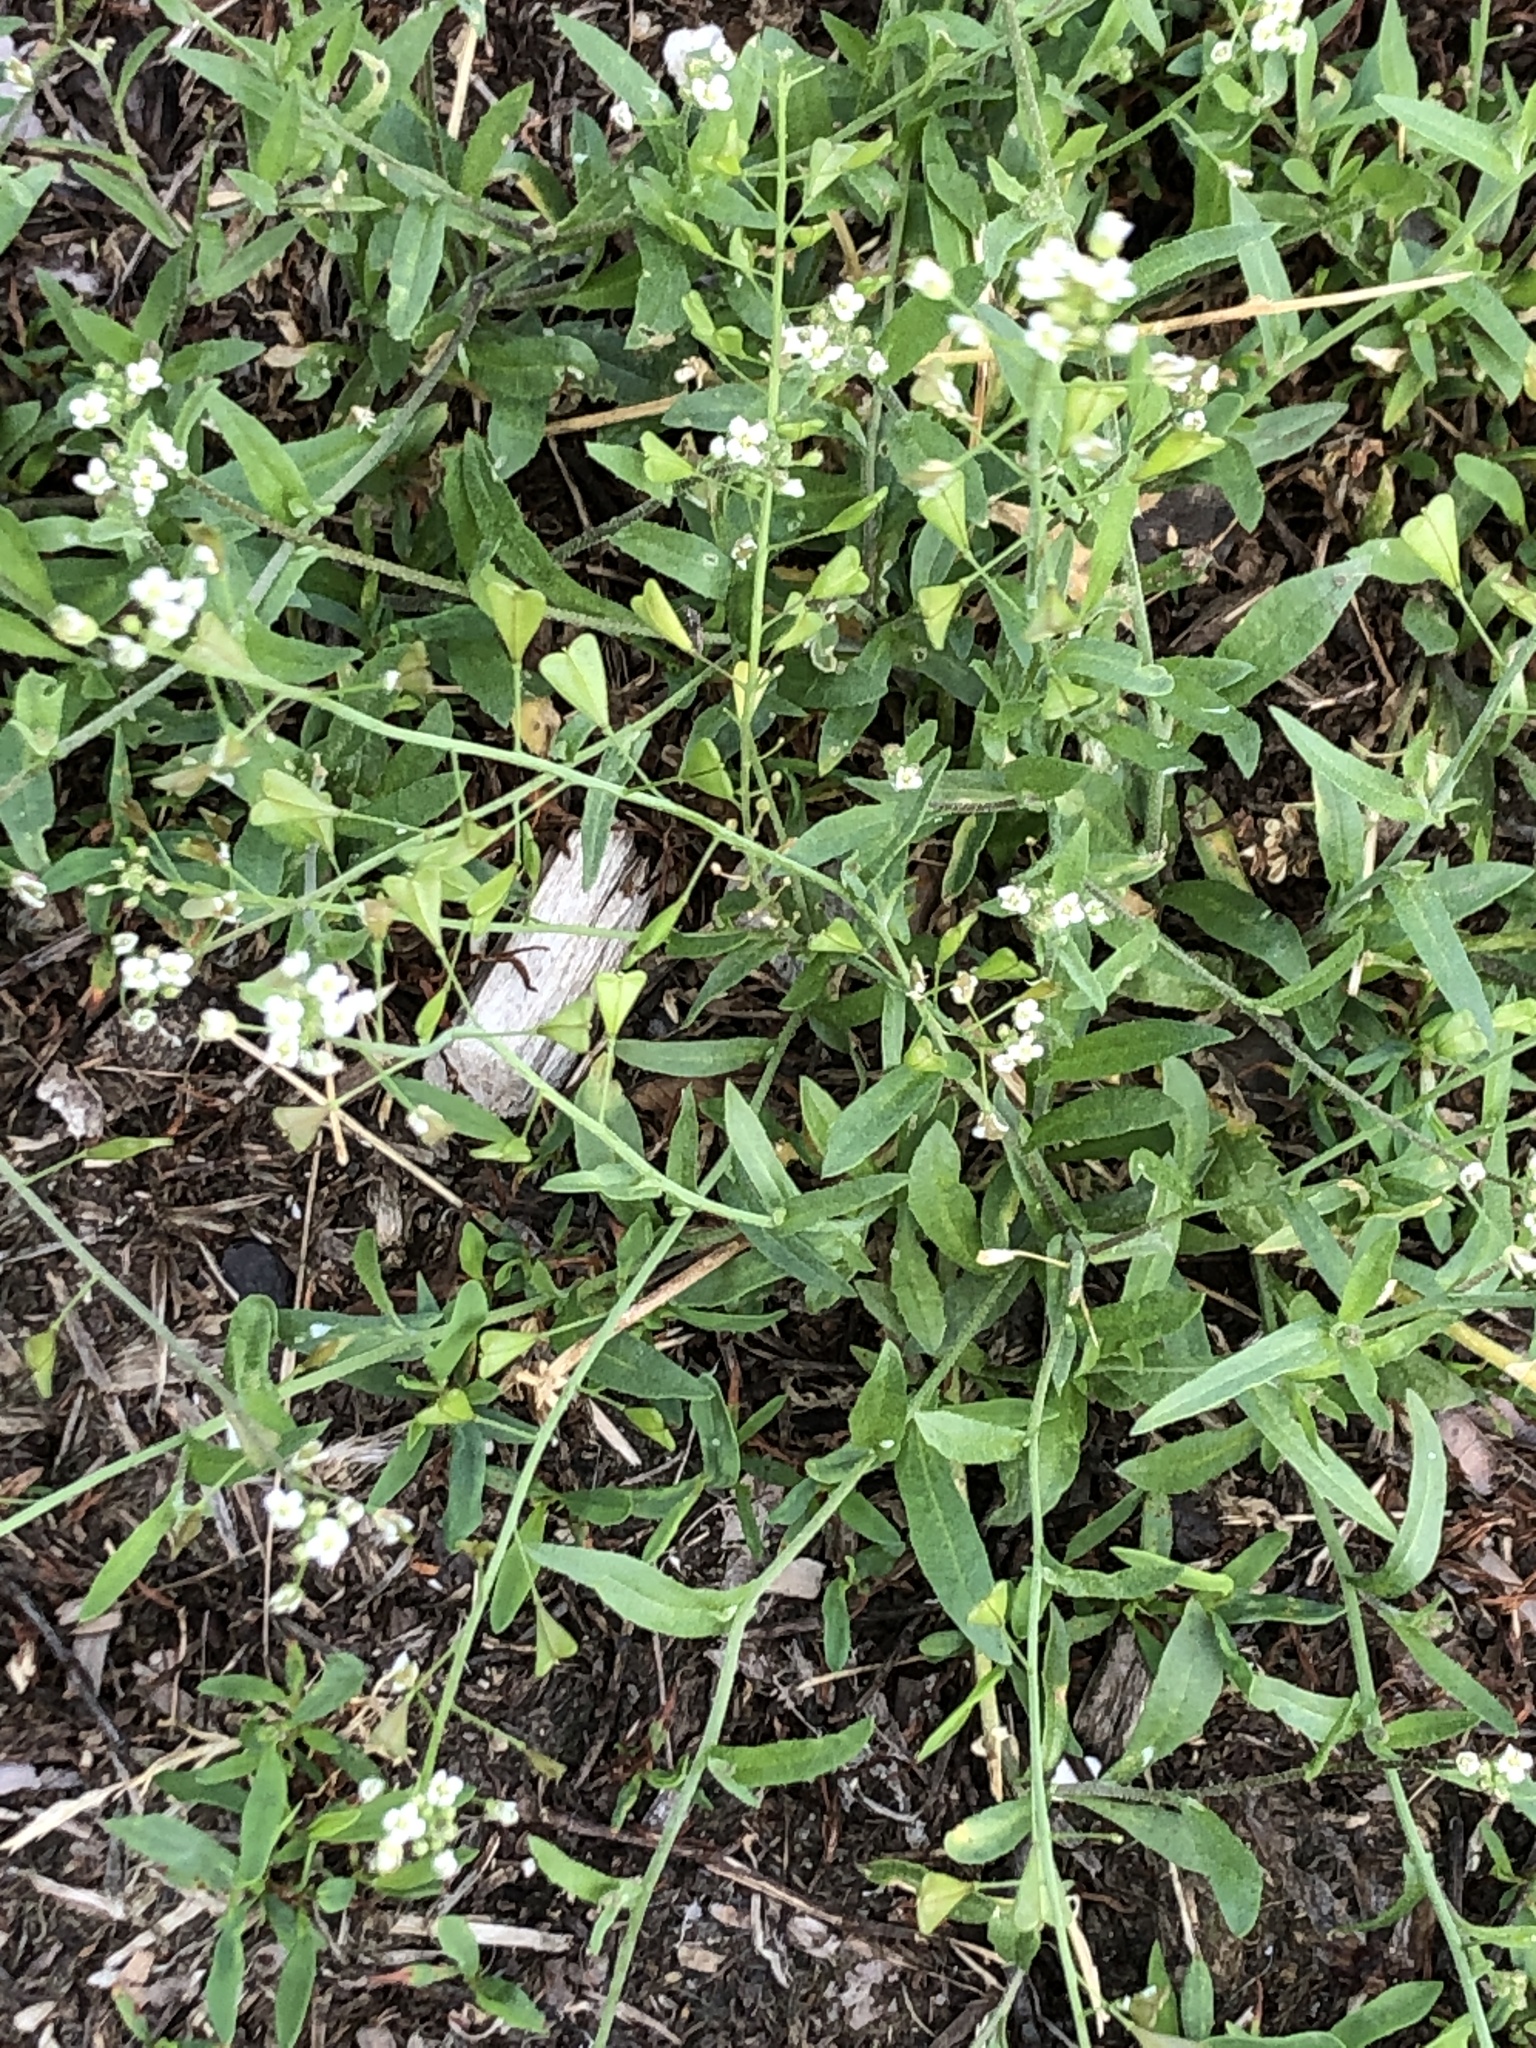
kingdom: Plantae
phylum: Tracheophyta
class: Magnoliopsida
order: Brassicales
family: Brassicaceae
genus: Capsella
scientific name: Capsella bursa-pastoris
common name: Shepherd's purse
